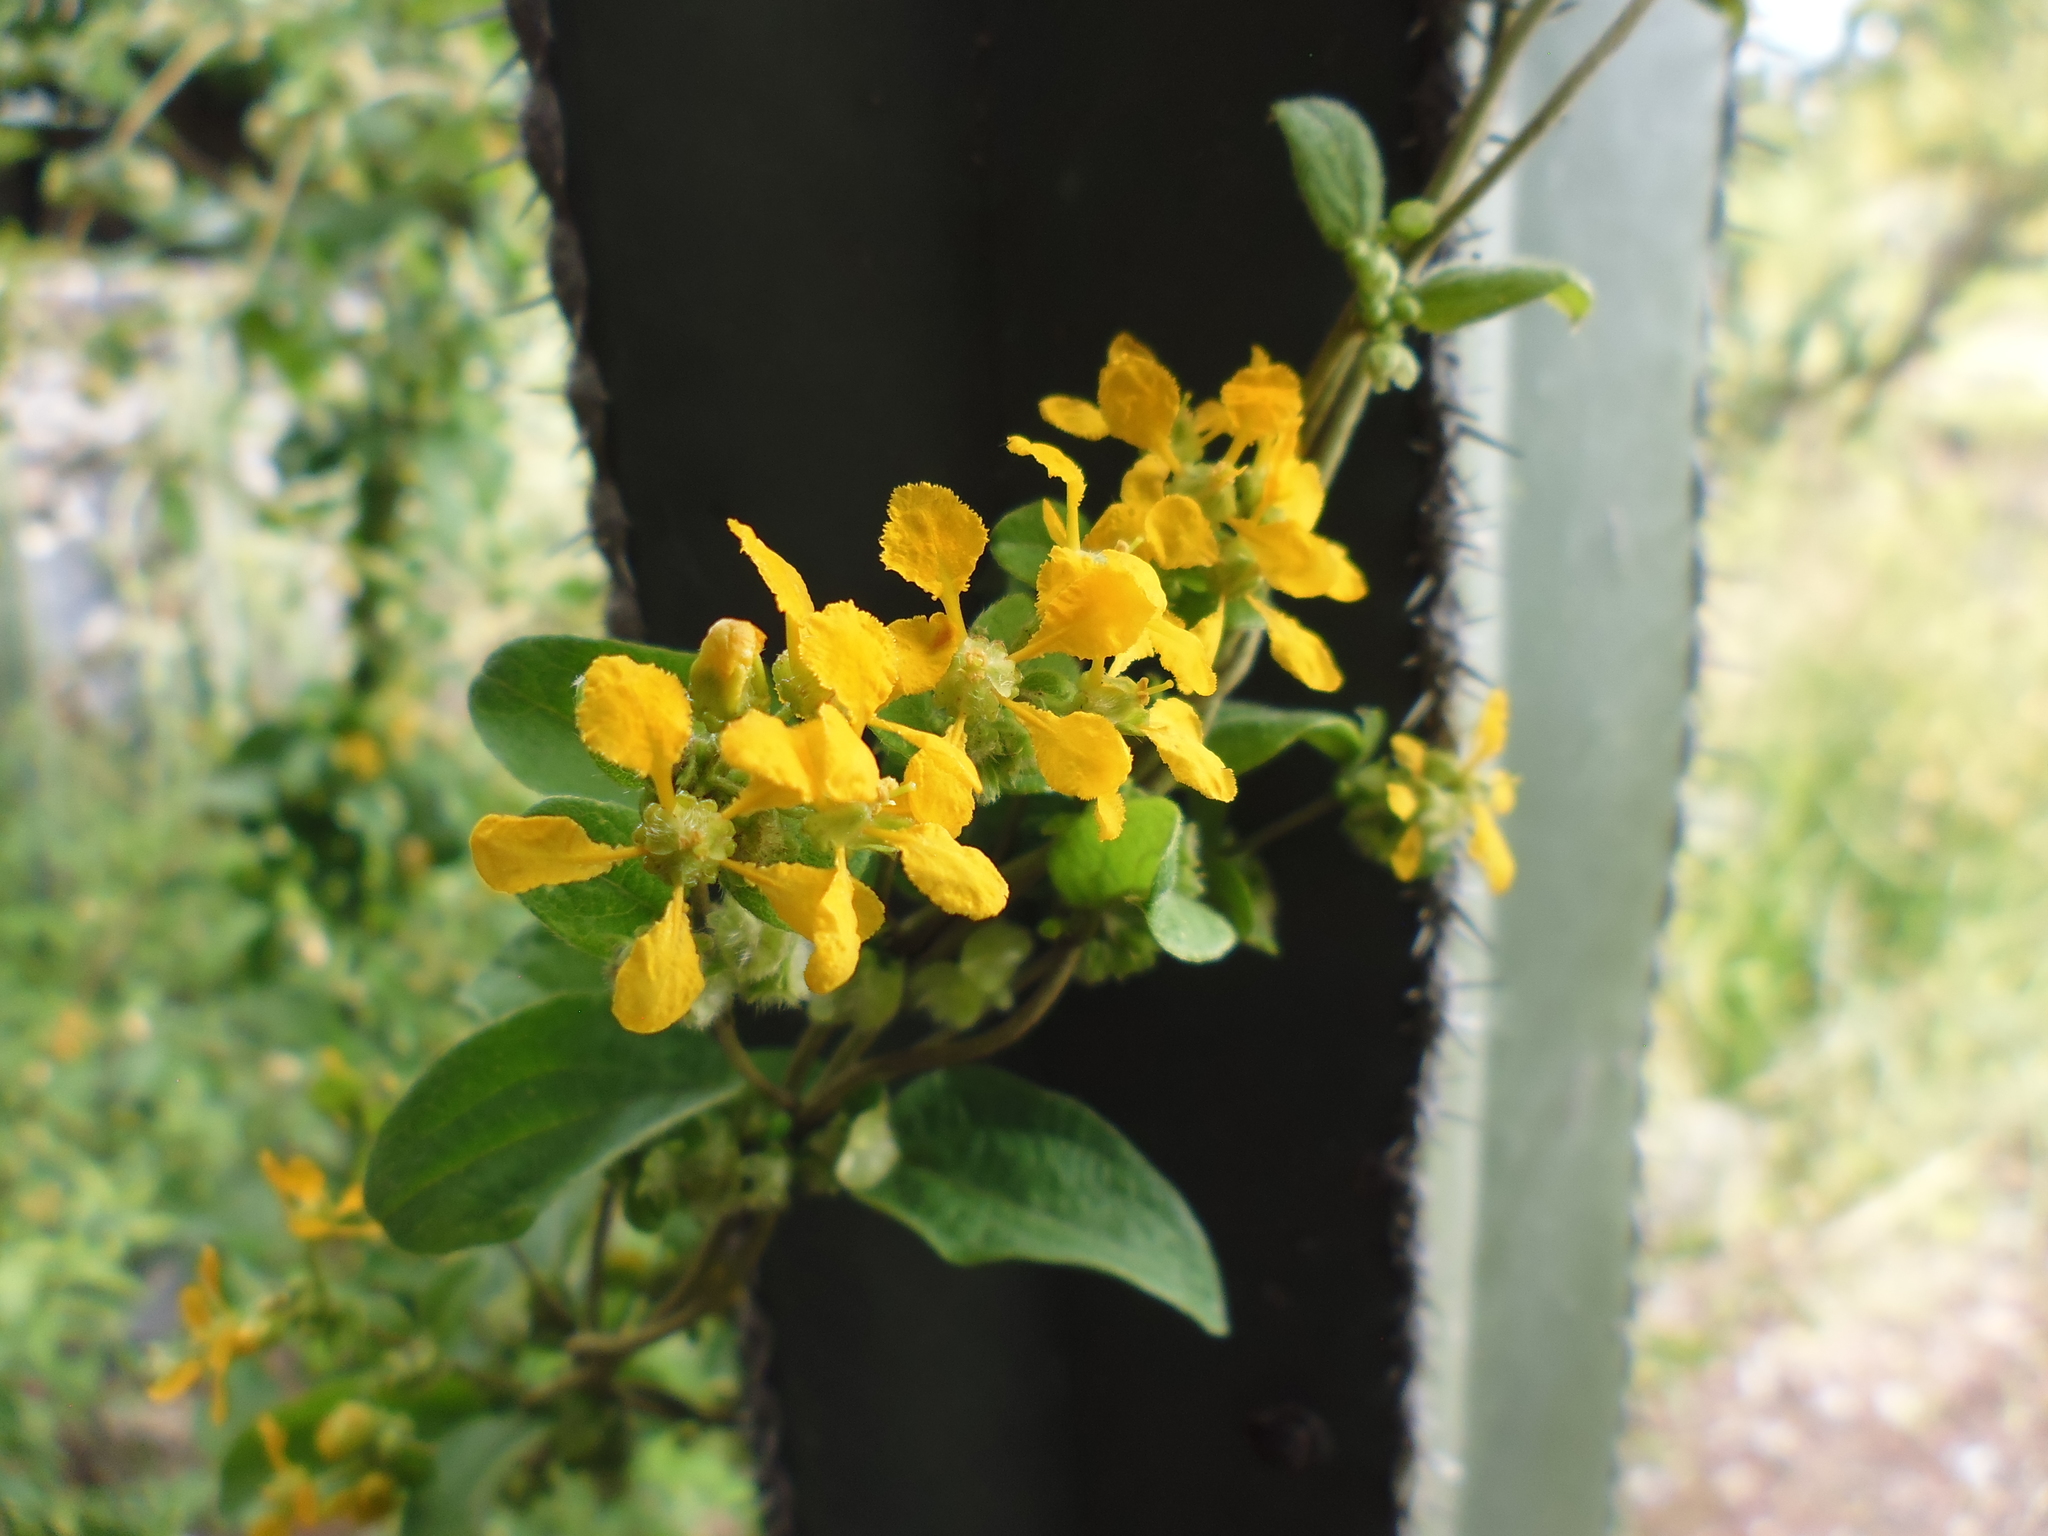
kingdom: Plantae
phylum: Tracheophyta
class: Magnoliopsida
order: Malpighiales
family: Malpighiaceae
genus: Gaudichaudia
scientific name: Gaudichaudia cynanchoides
